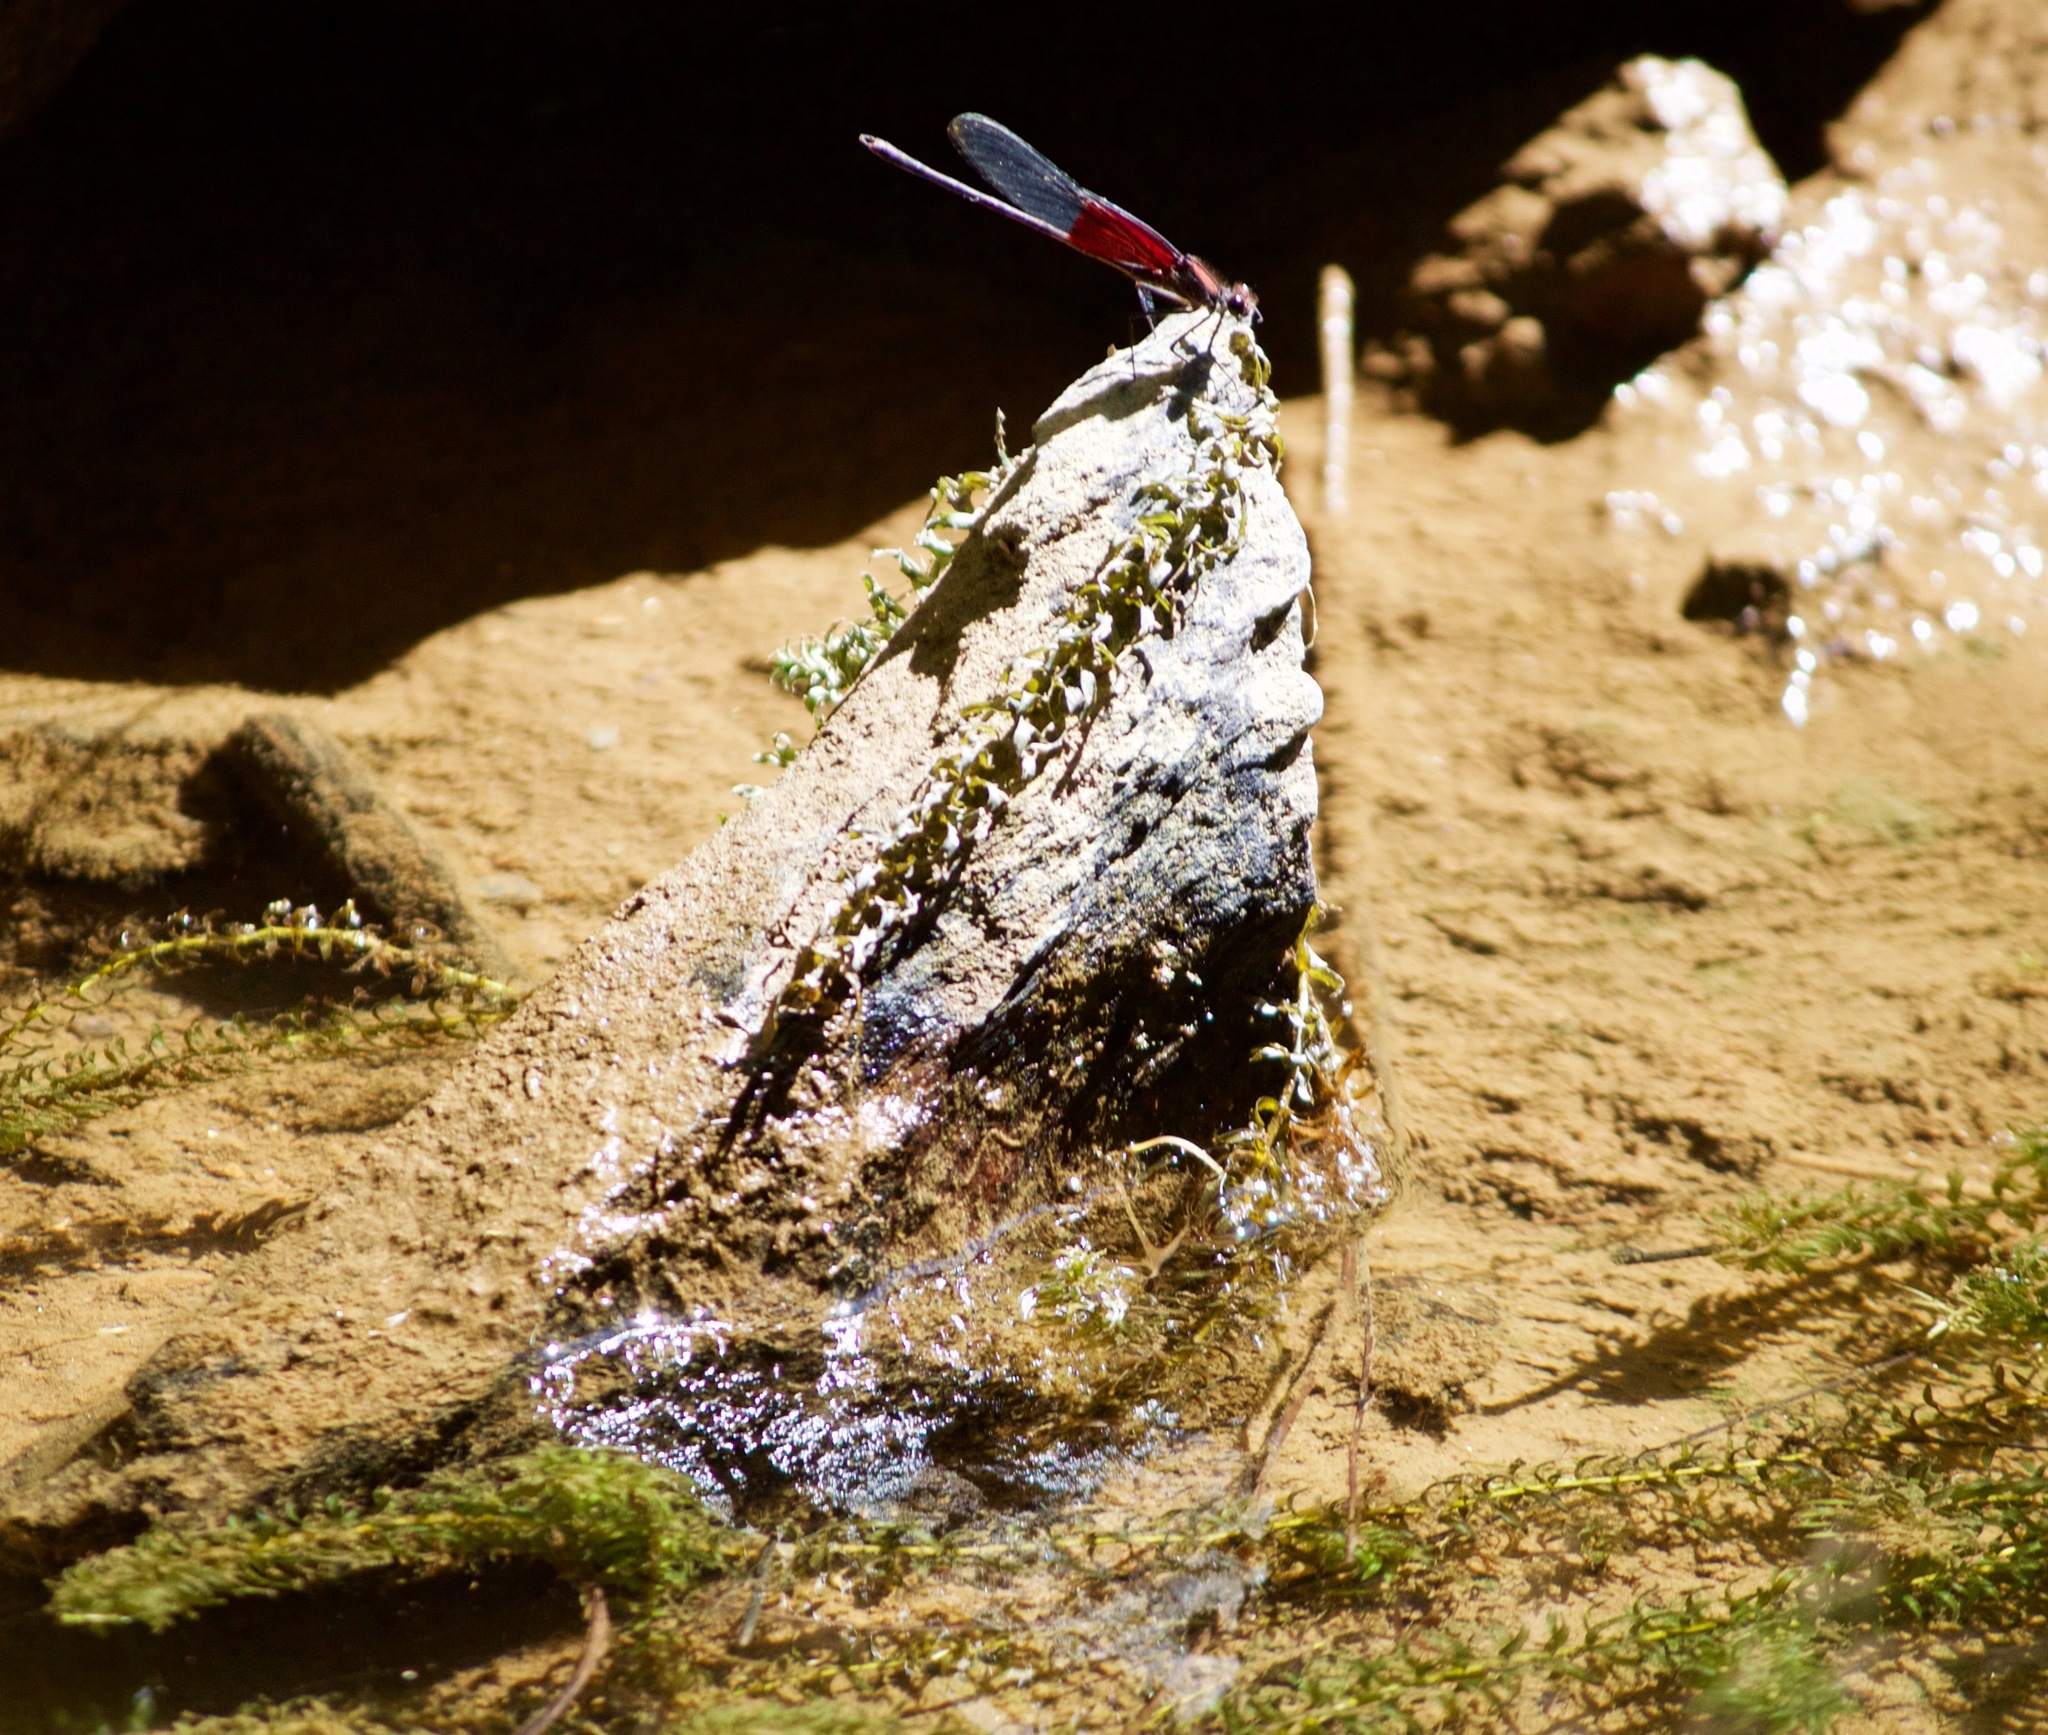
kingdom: Animalia
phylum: Arthropoda
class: Insecta
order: Odonata
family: Calopterygidae
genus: Hetaerina
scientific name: Hetaerina americana
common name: American rubyspot
